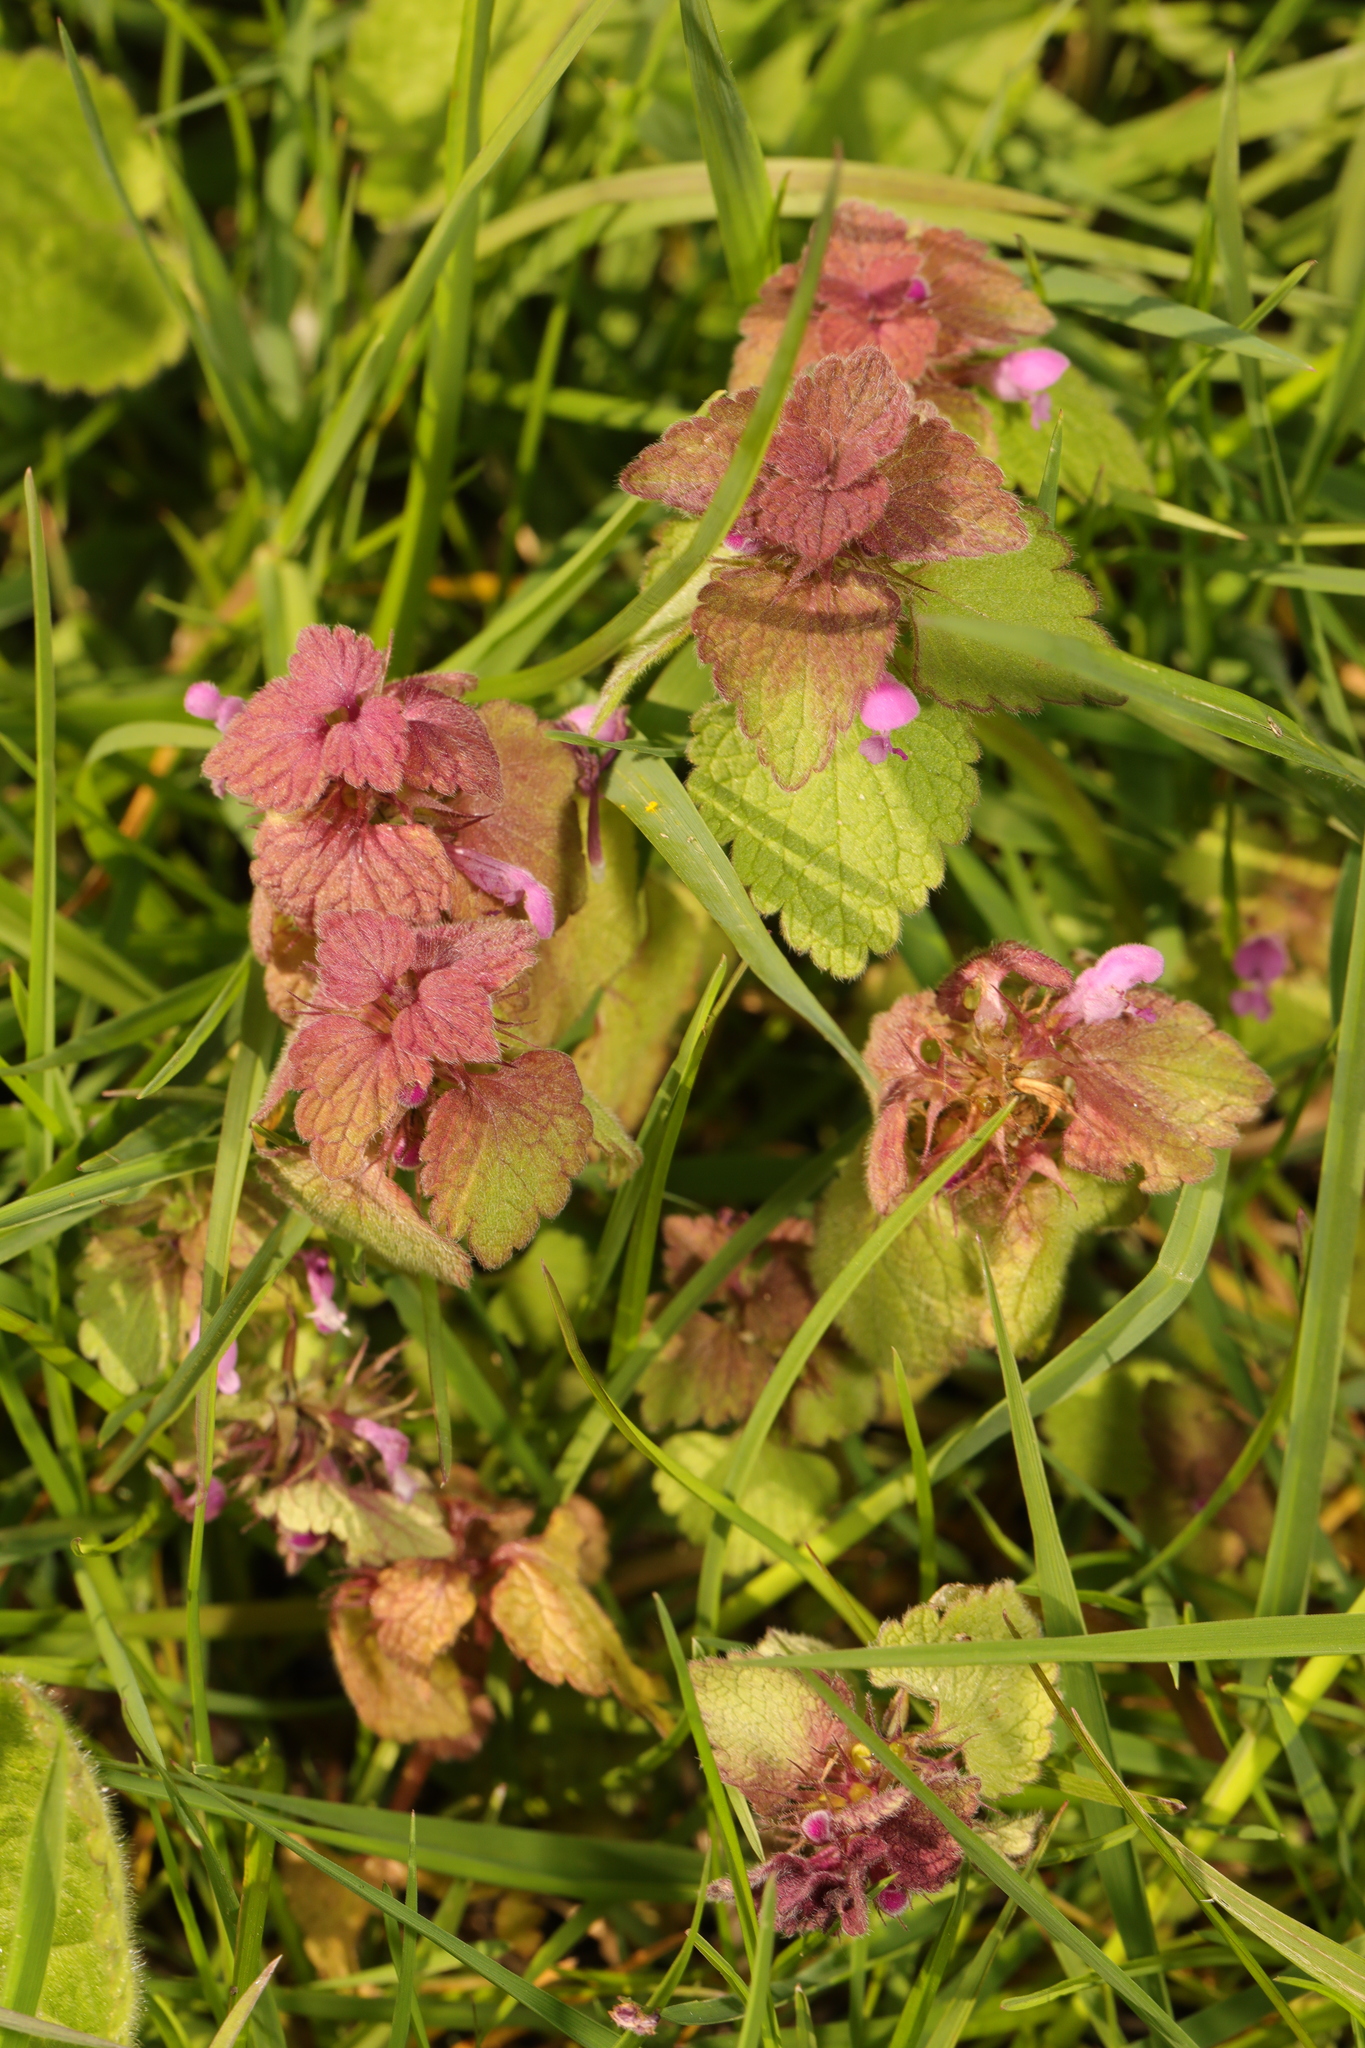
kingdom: Plantae
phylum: Tracheophyta
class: Magnoliopsida
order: Lamiales
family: Lamiaceae
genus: Lamium
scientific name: Lamium purpureum
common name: Red dead-nettle
